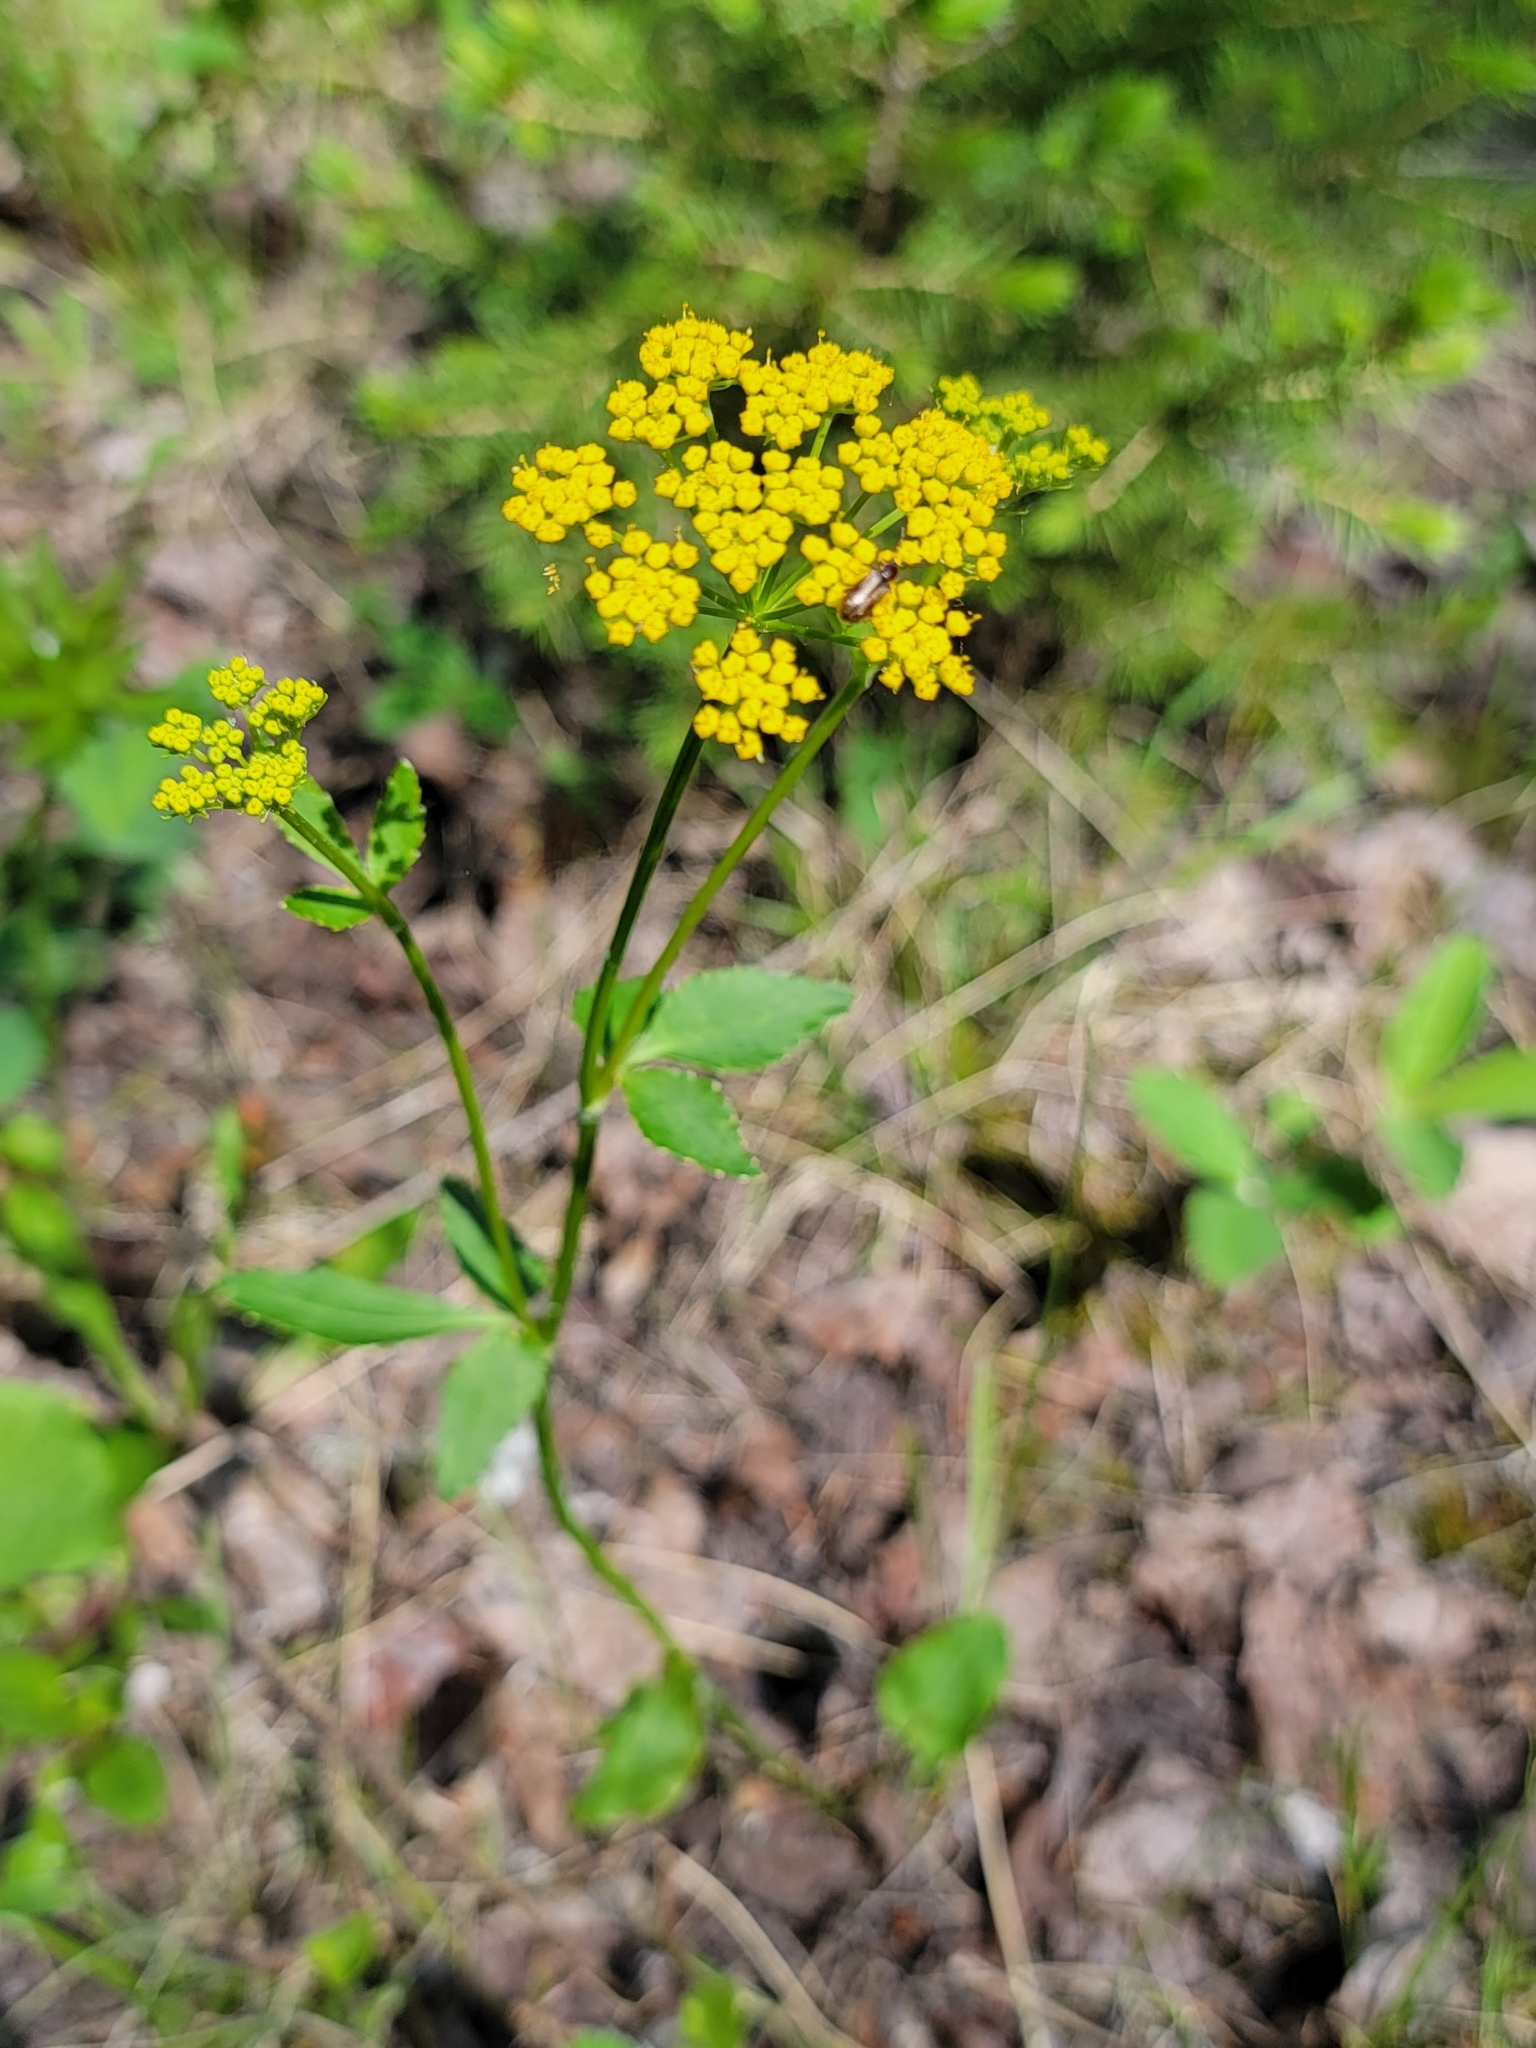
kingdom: Plantae
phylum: Tracheophyta
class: Magnoliopsida
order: Apiales
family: Apiaceae
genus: Zizia
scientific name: Zizia aptera
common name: Heart-leaved alexanders
